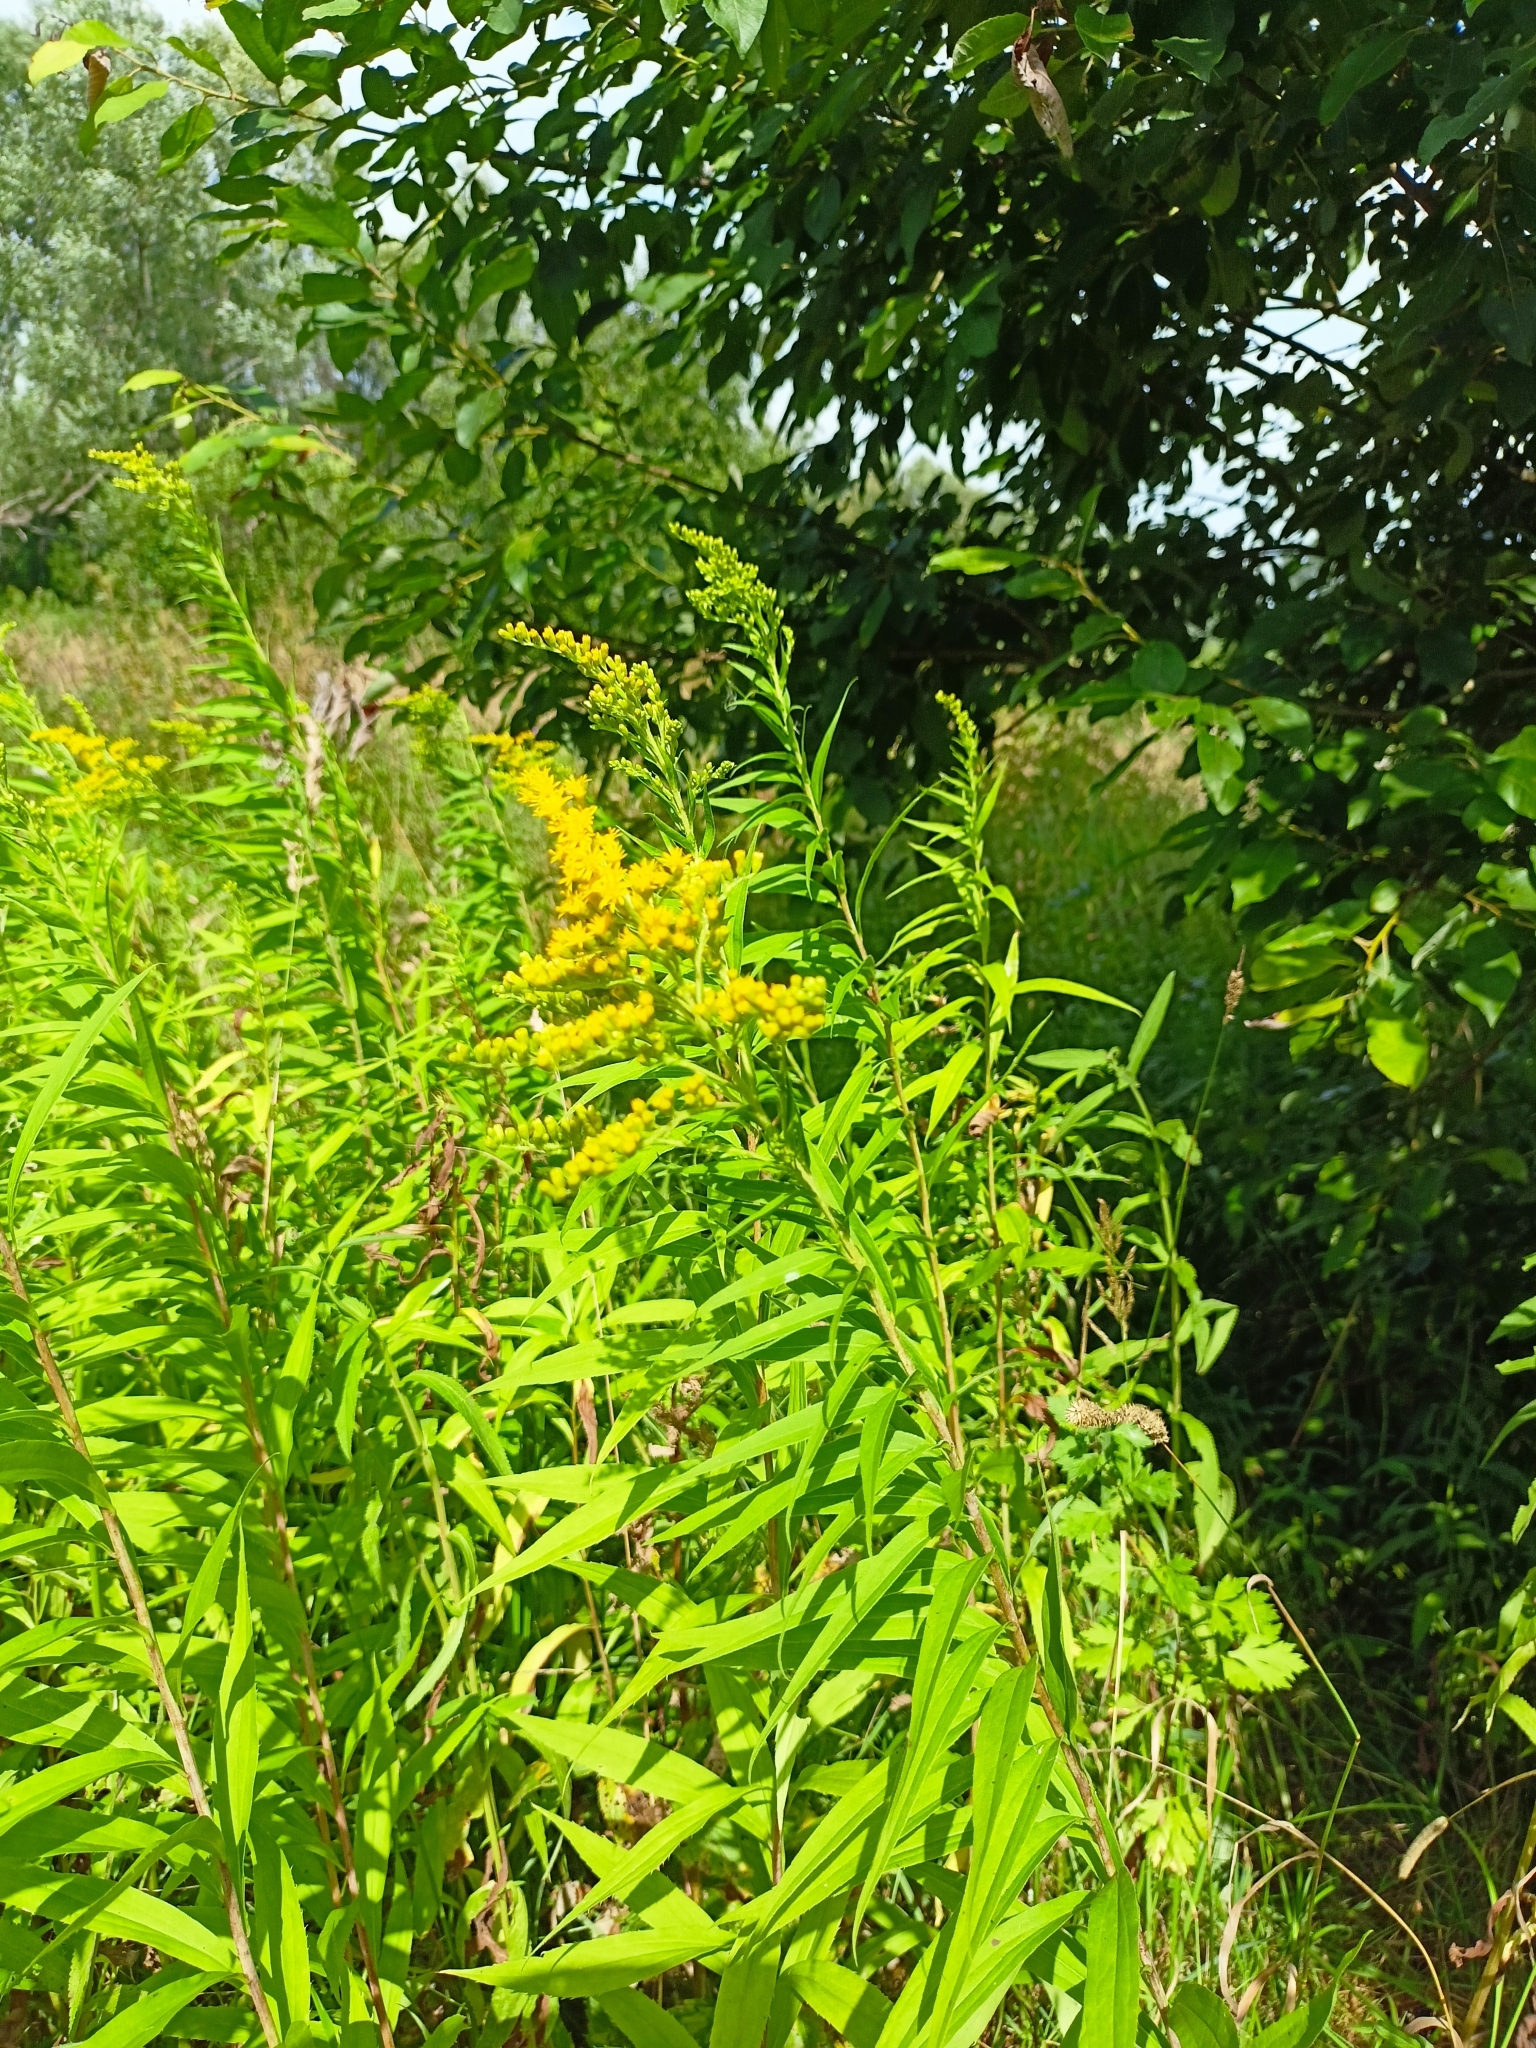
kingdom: Plantae
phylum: Tracheophyta
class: Magnoliopsida
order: Asterales
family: Asteraceae
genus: Solidago
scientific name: Solidago canadensis
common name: Canada goldenrod
